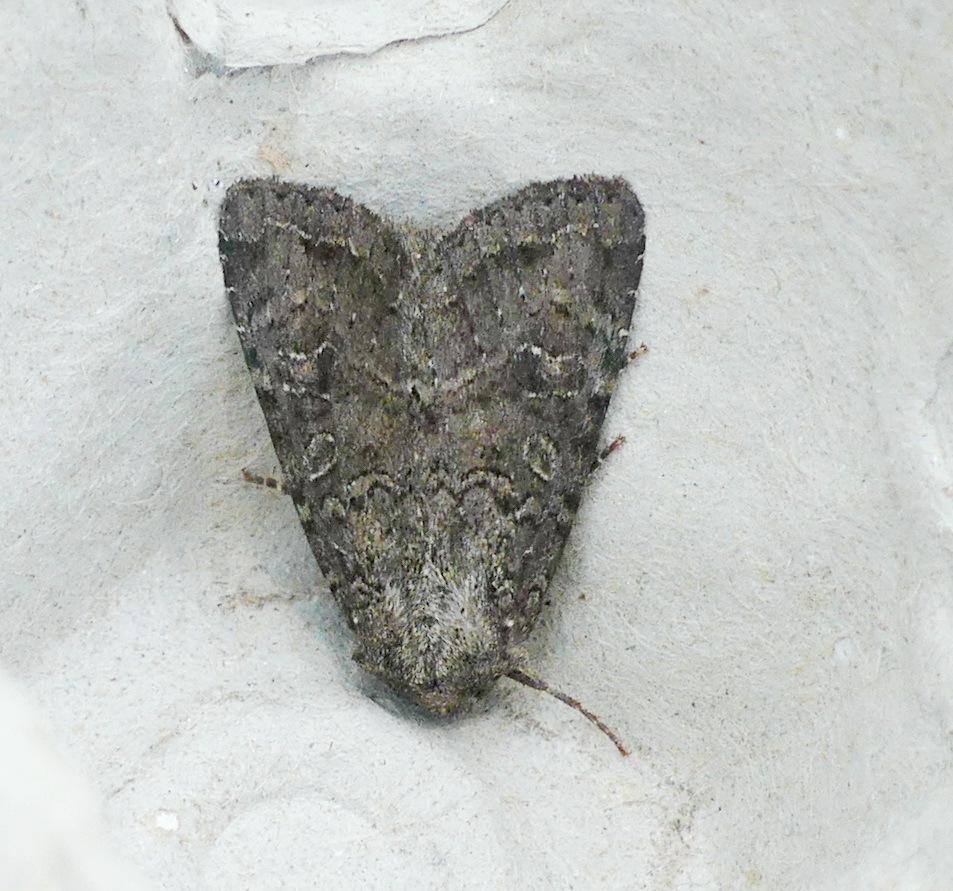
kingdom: Animalia
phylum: Arthropoda
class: Insecta
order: Lepidoptera
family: Noctuidae
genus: Apamea
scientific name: Apamea devastator
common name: Glassy cutworm
